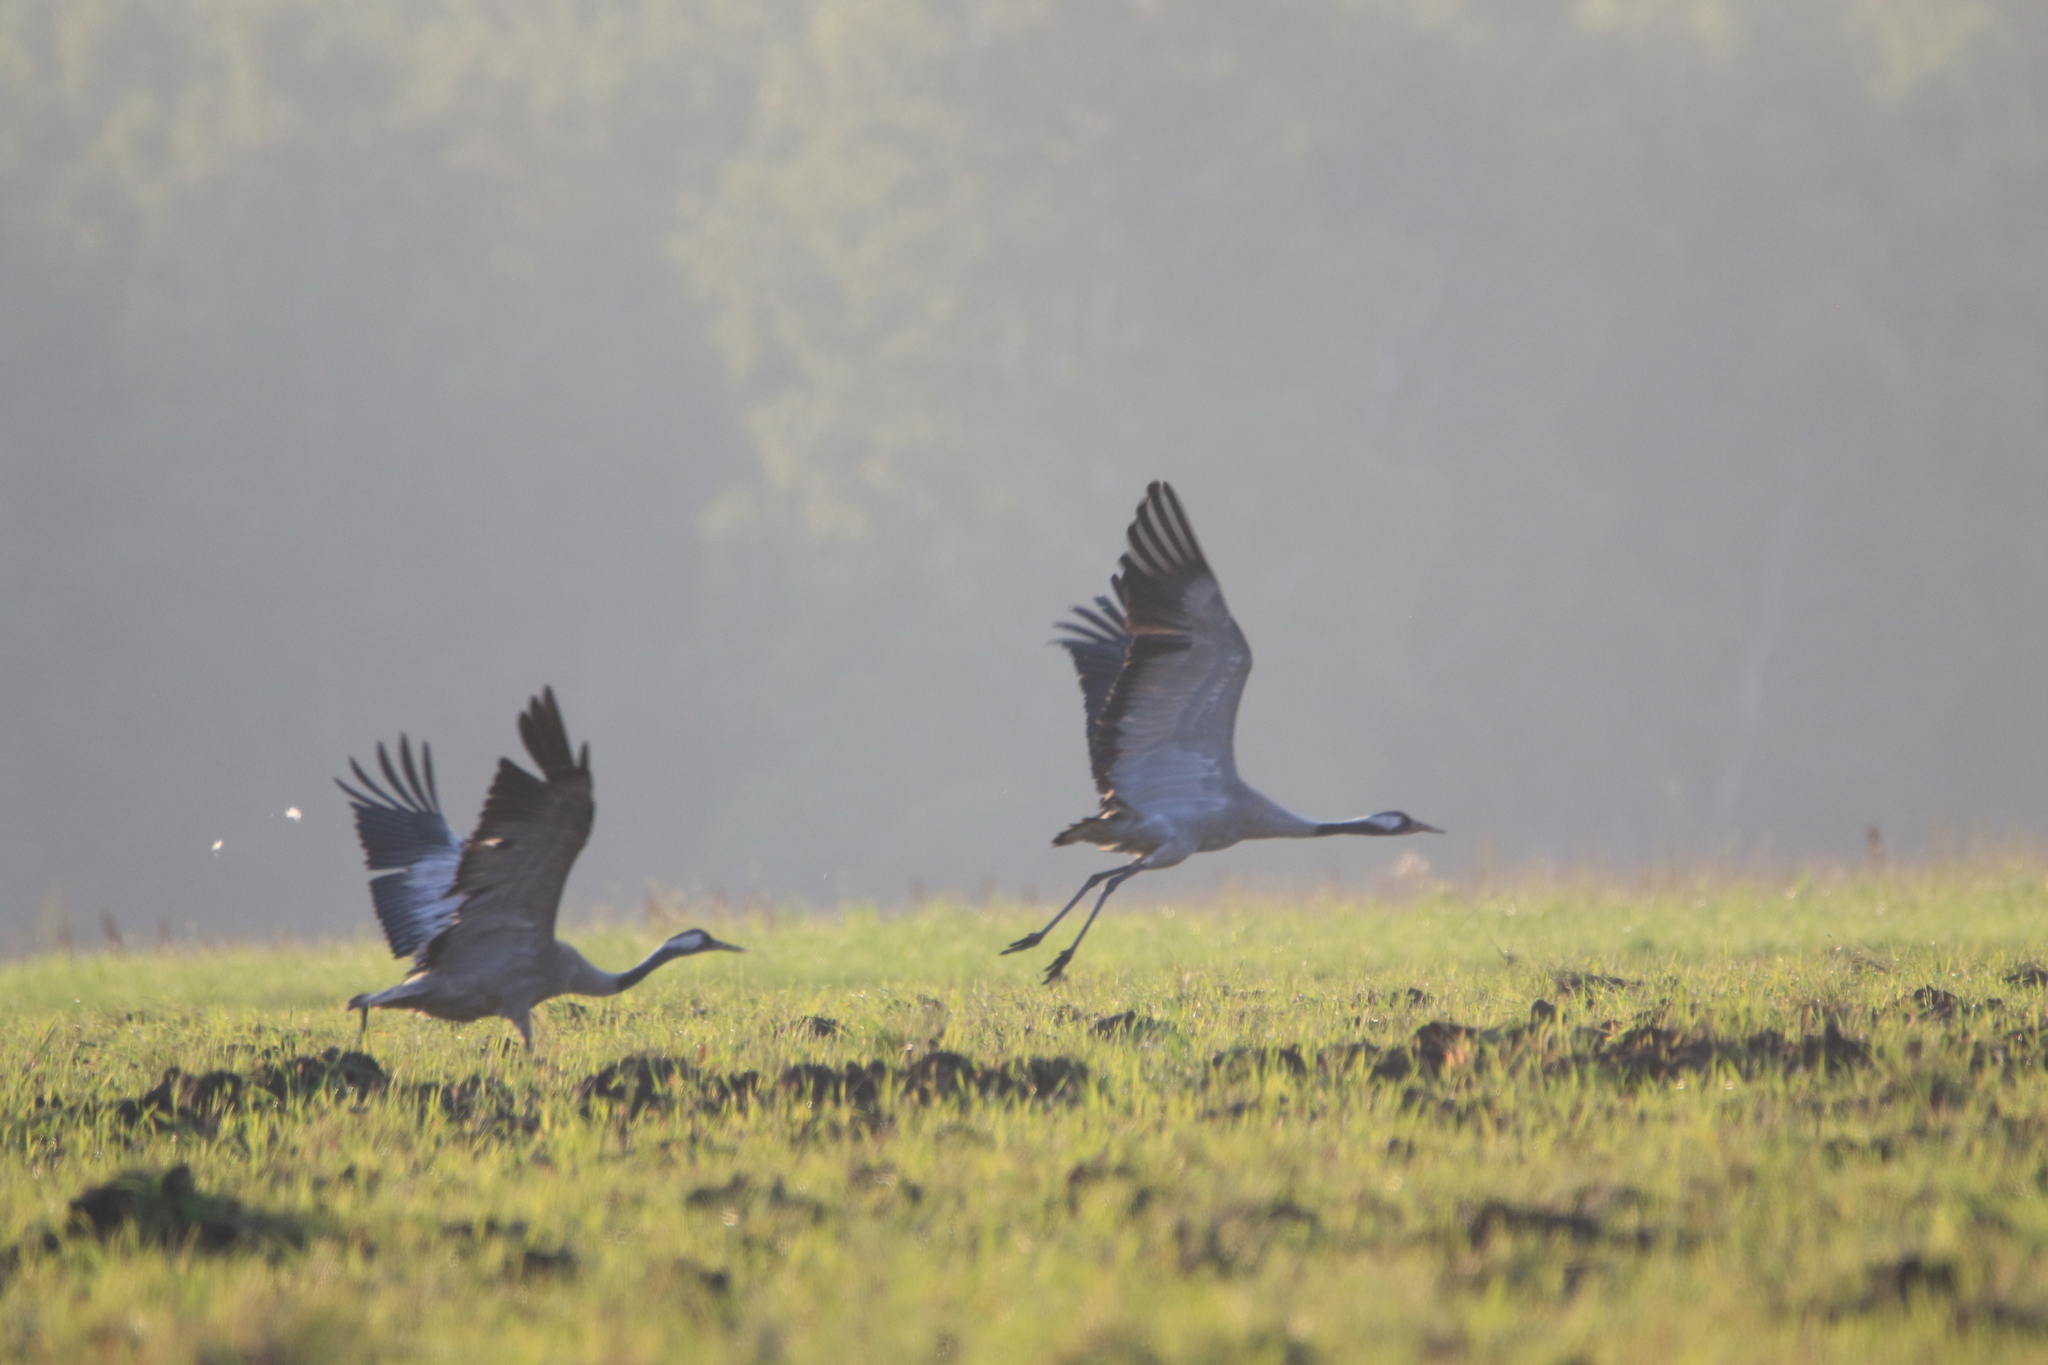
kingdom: Animalia
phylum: Chordata
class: Aves
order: Gruiformes
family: Gruidae
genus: Grus
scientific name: Grus grus
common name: Common crane
